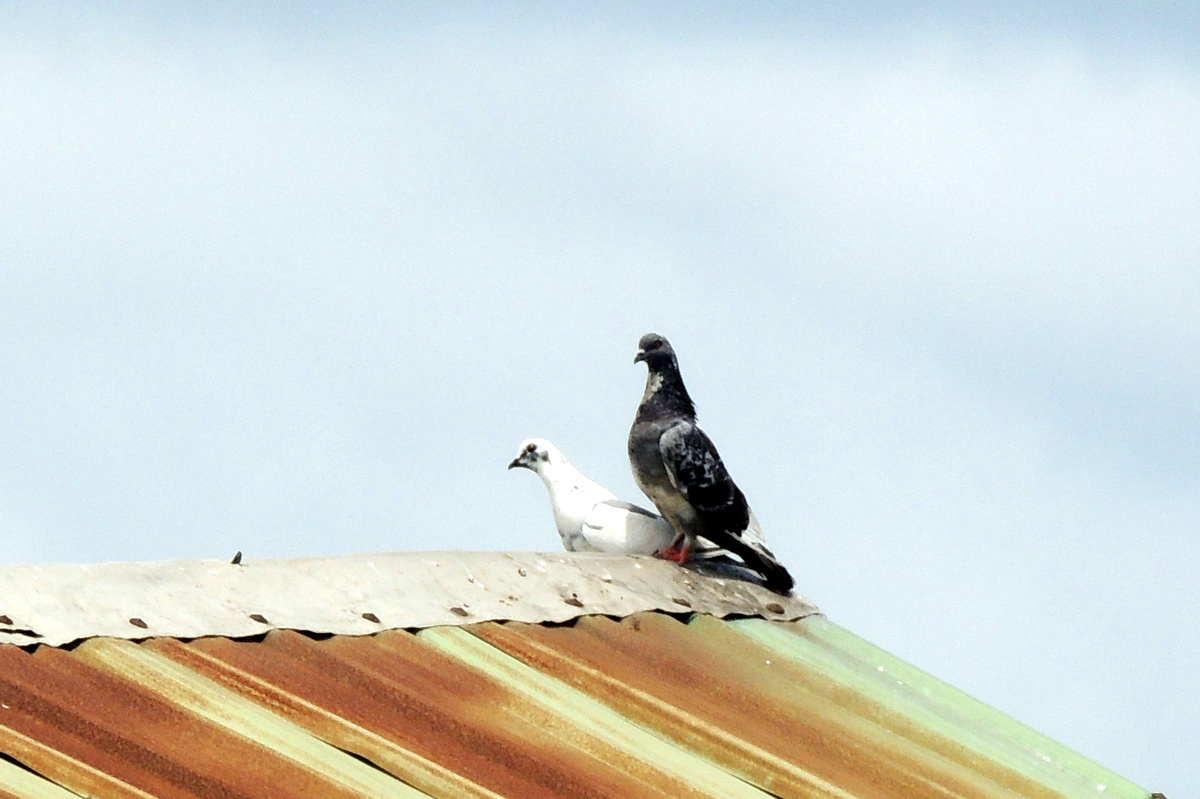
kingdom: Animalia
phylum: Chordata
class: Aves
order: Columbiformes
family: Columbidae
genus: Columba
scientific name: Columba livia
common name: Rock pigeon
